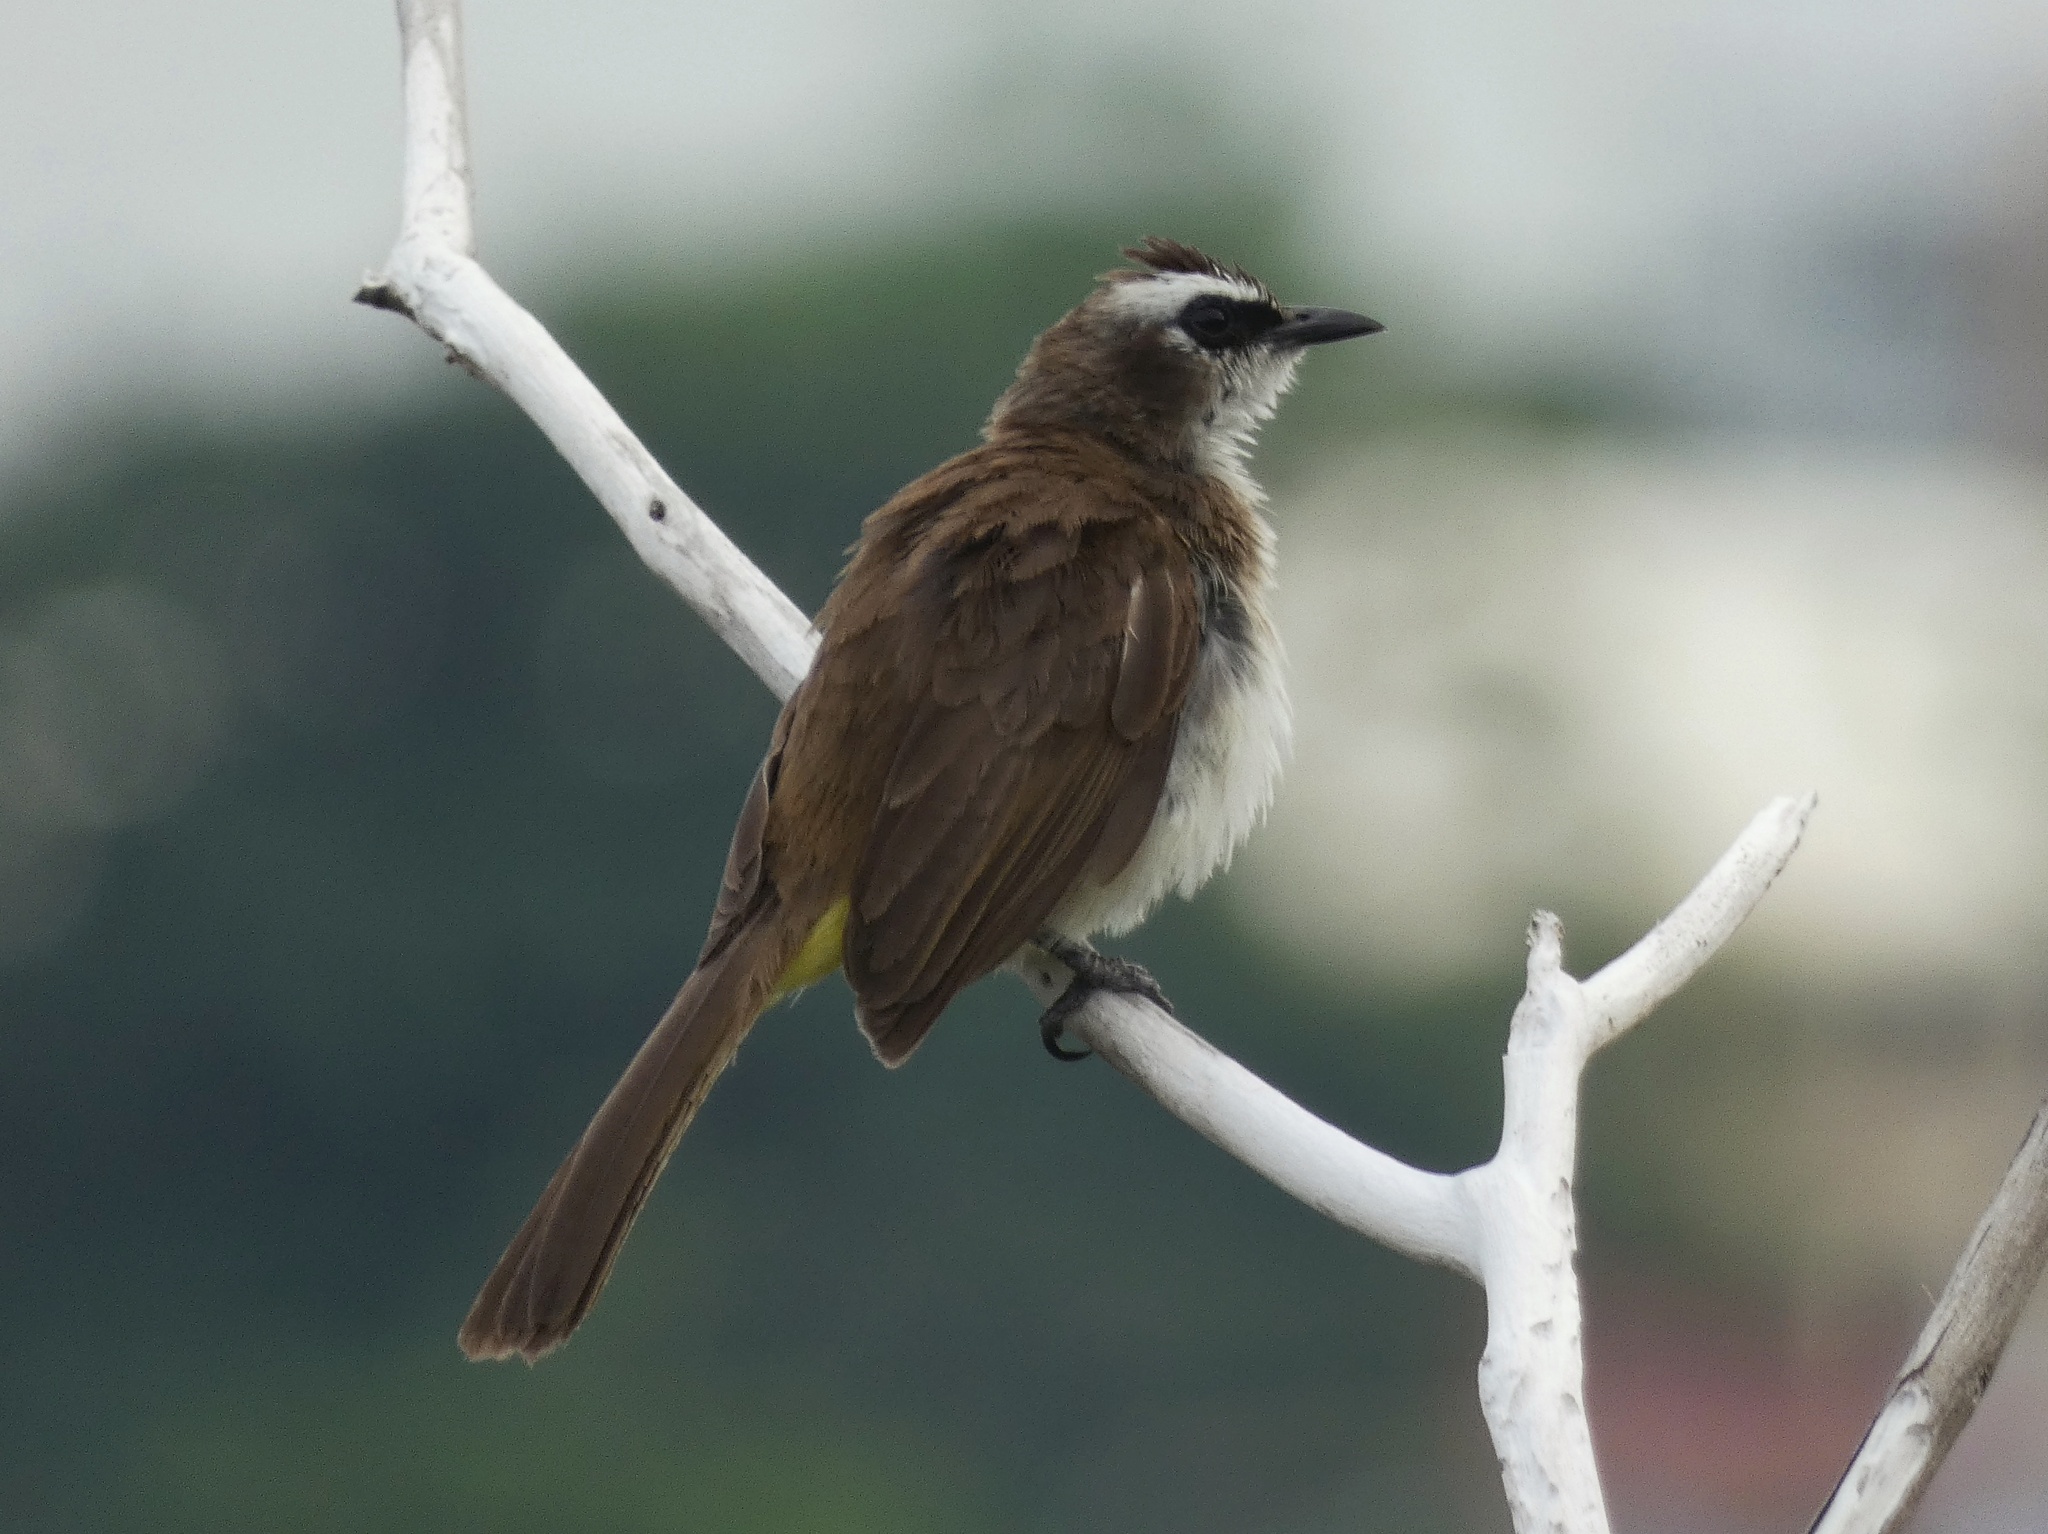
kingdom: Animalia
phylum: Chordata
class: Aves
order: Passeriformes
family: Pycnonotidae
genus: Pycnonotus
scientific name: Pycnonotus goiavier
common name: Yellow-vented bulbul
